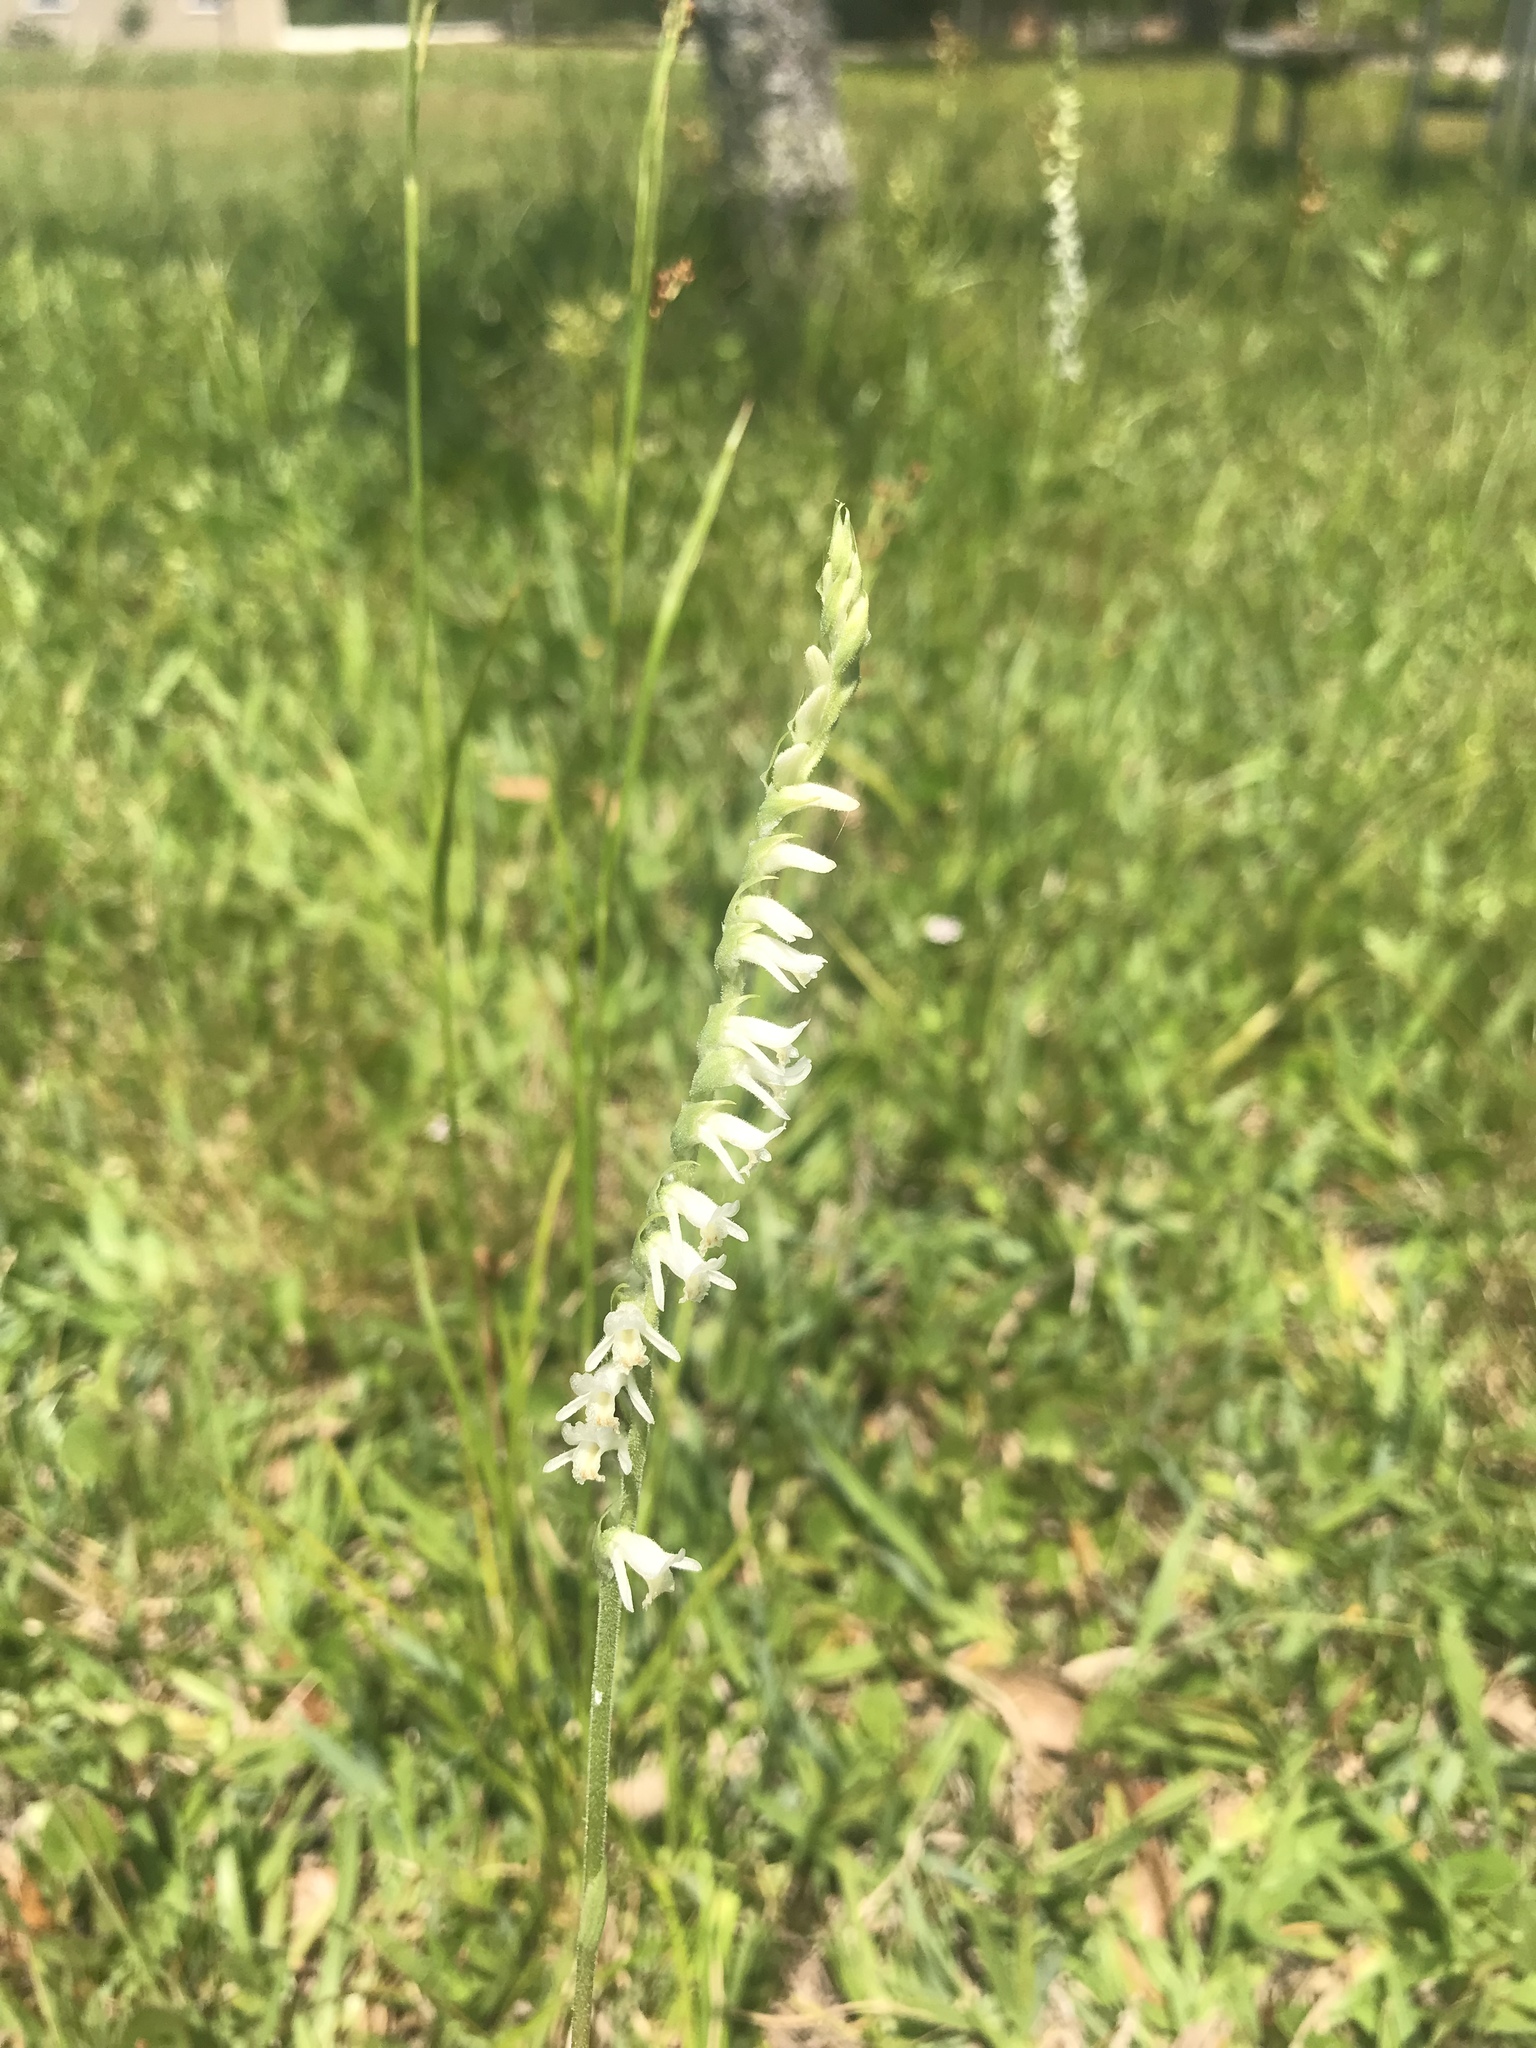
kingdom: Plantae
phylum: Tracheophyta
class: Liliopsida
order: Asparagales
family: Orchidaceae
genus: Spiranthes
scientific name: Spiranthes vernalis
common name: Spring ladies'-tresses
